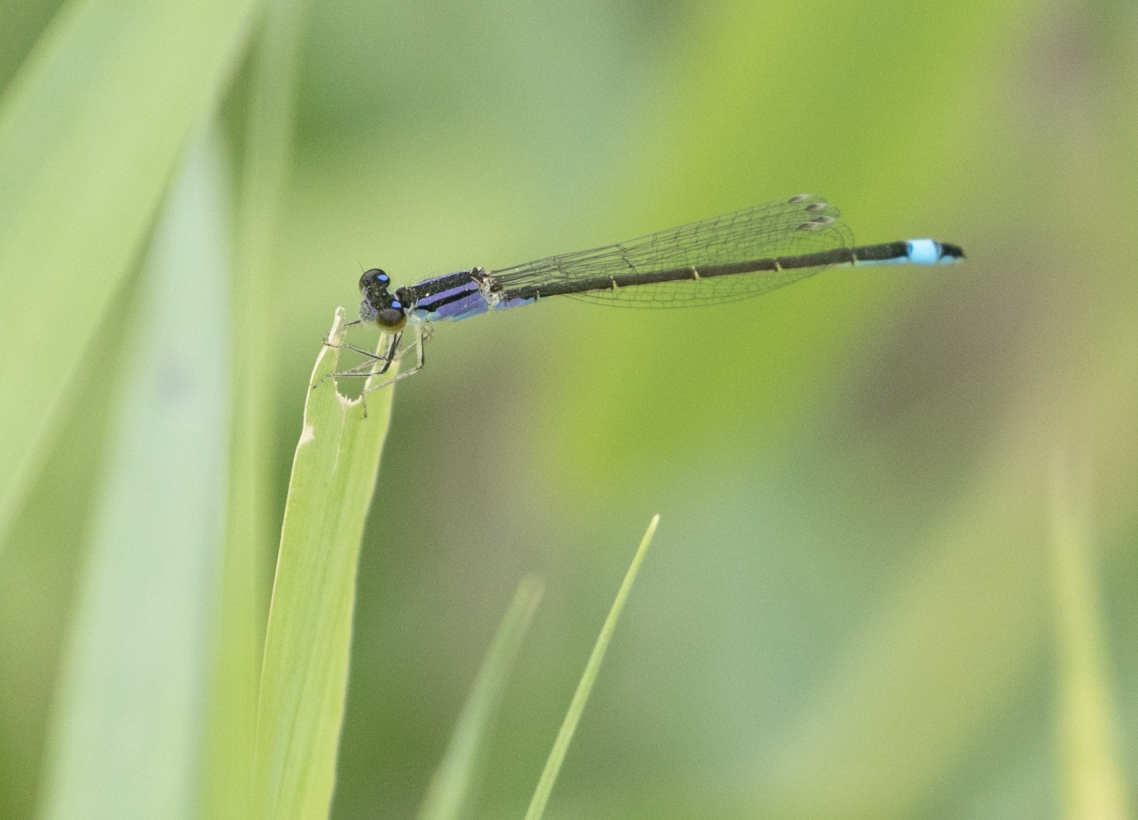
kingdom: Animalia
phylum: Arthropoda
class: Insecta
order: Odonata
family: Coenagrionidae
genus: Ischnura
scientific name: Ischnura elegans
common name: Blue-tailed damselfly
